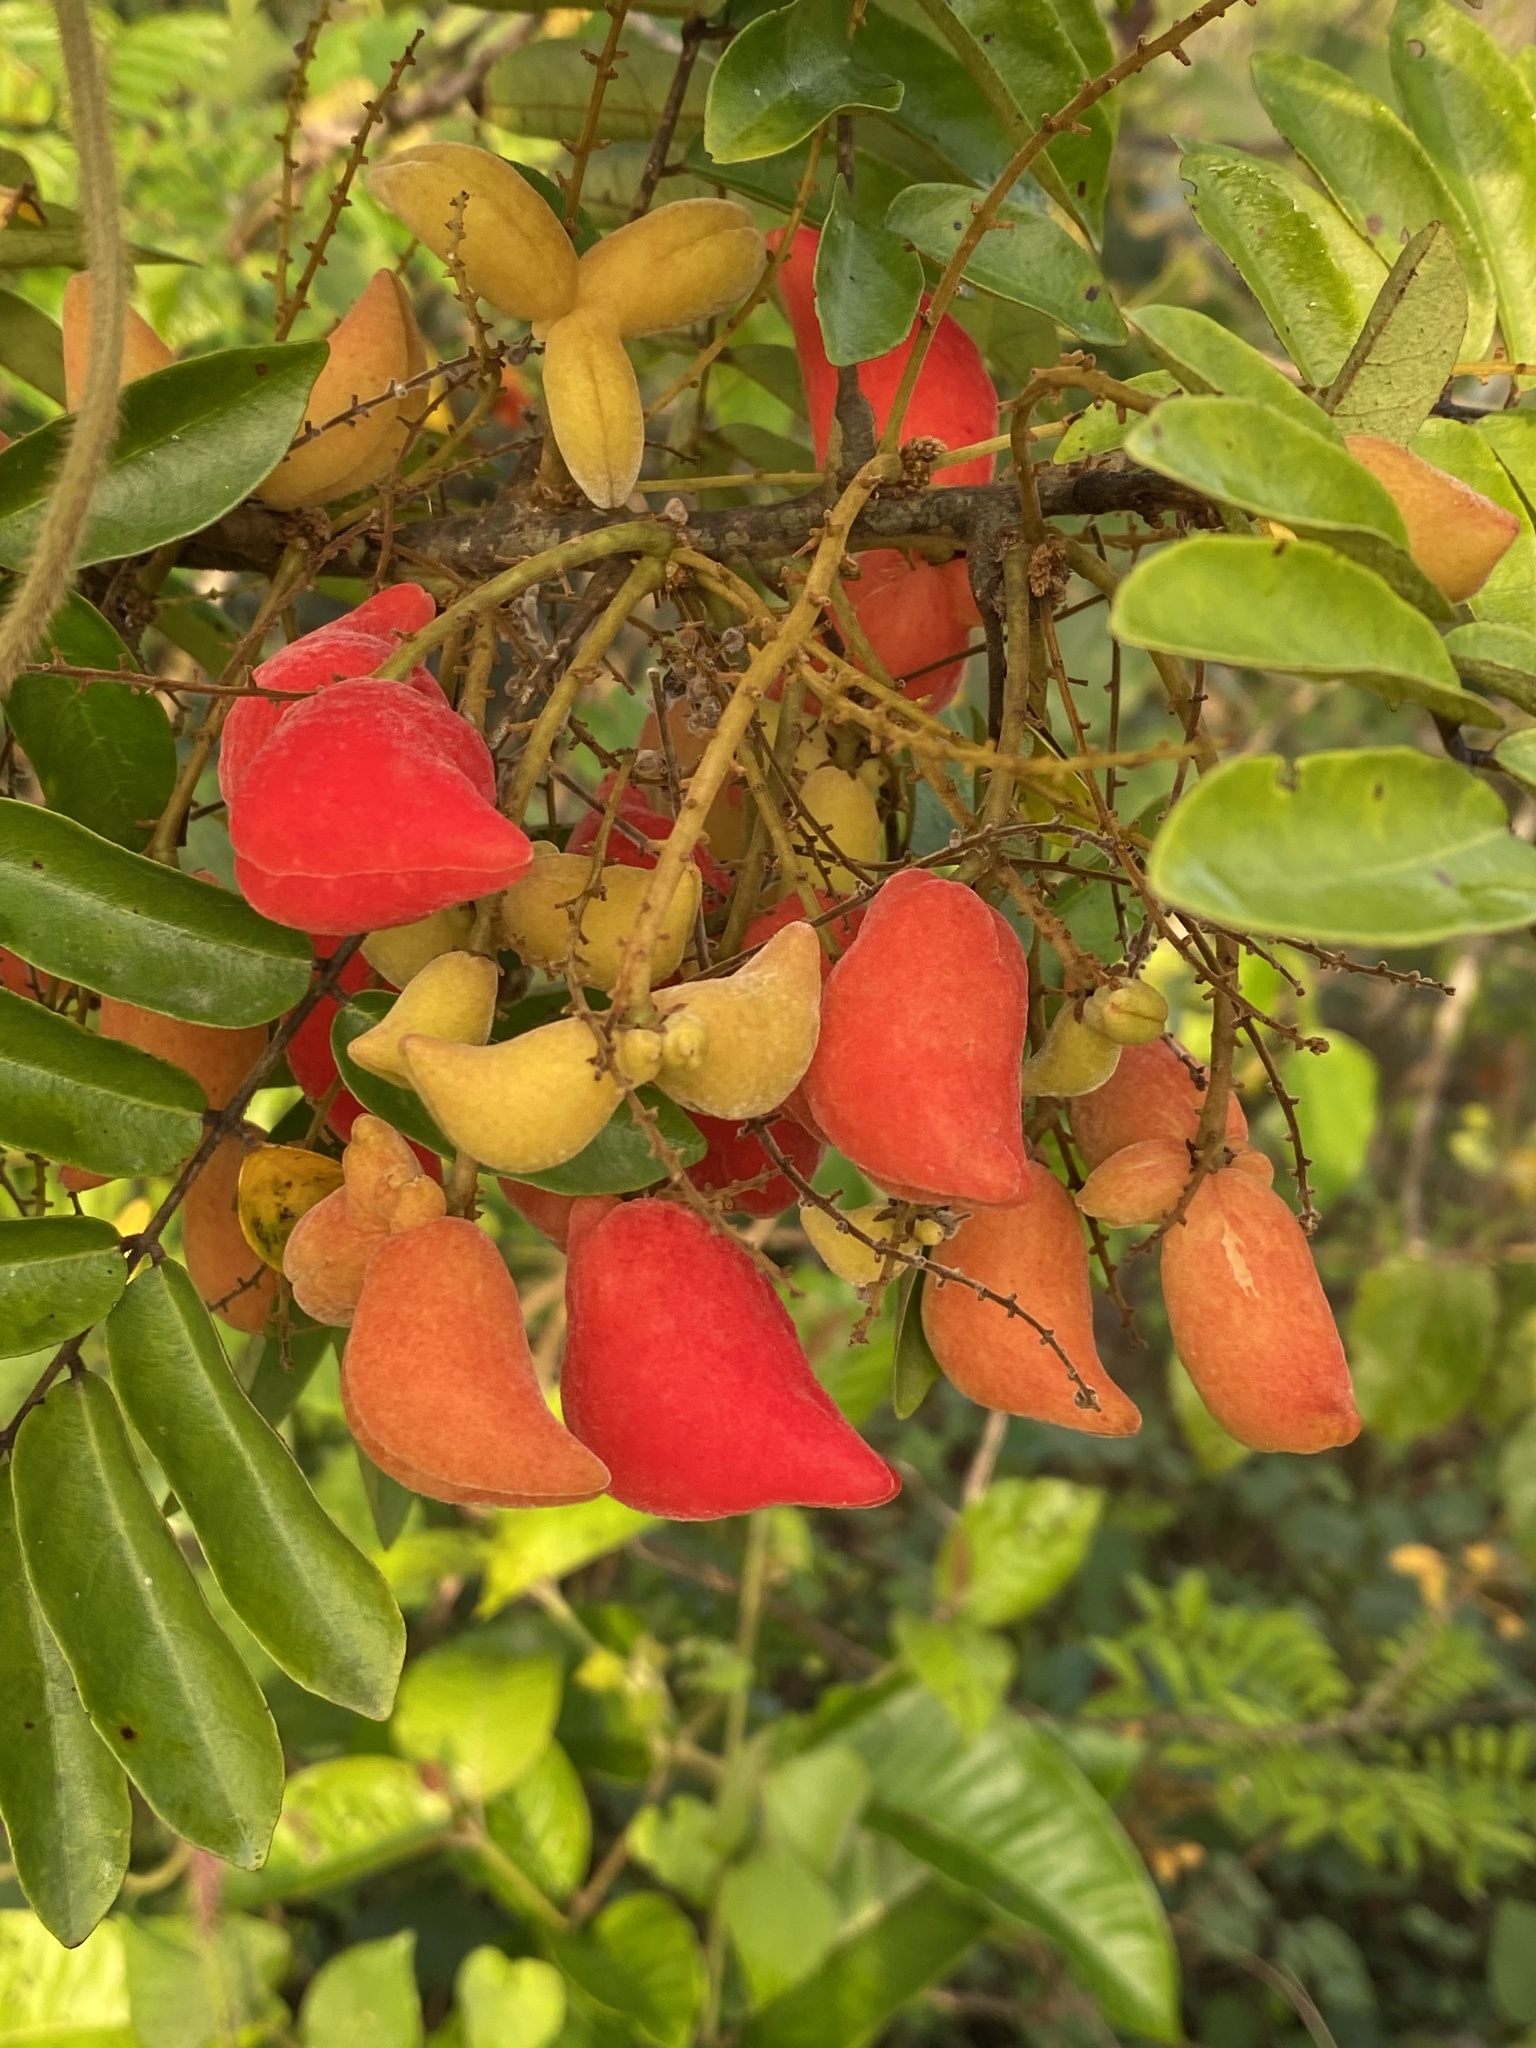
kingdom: Plantae
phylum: Tracheophyta
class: Magnoliopsida
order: Oxalidales
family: Connaraceae
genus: Cnestis
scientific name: Cnestis ferruginea
